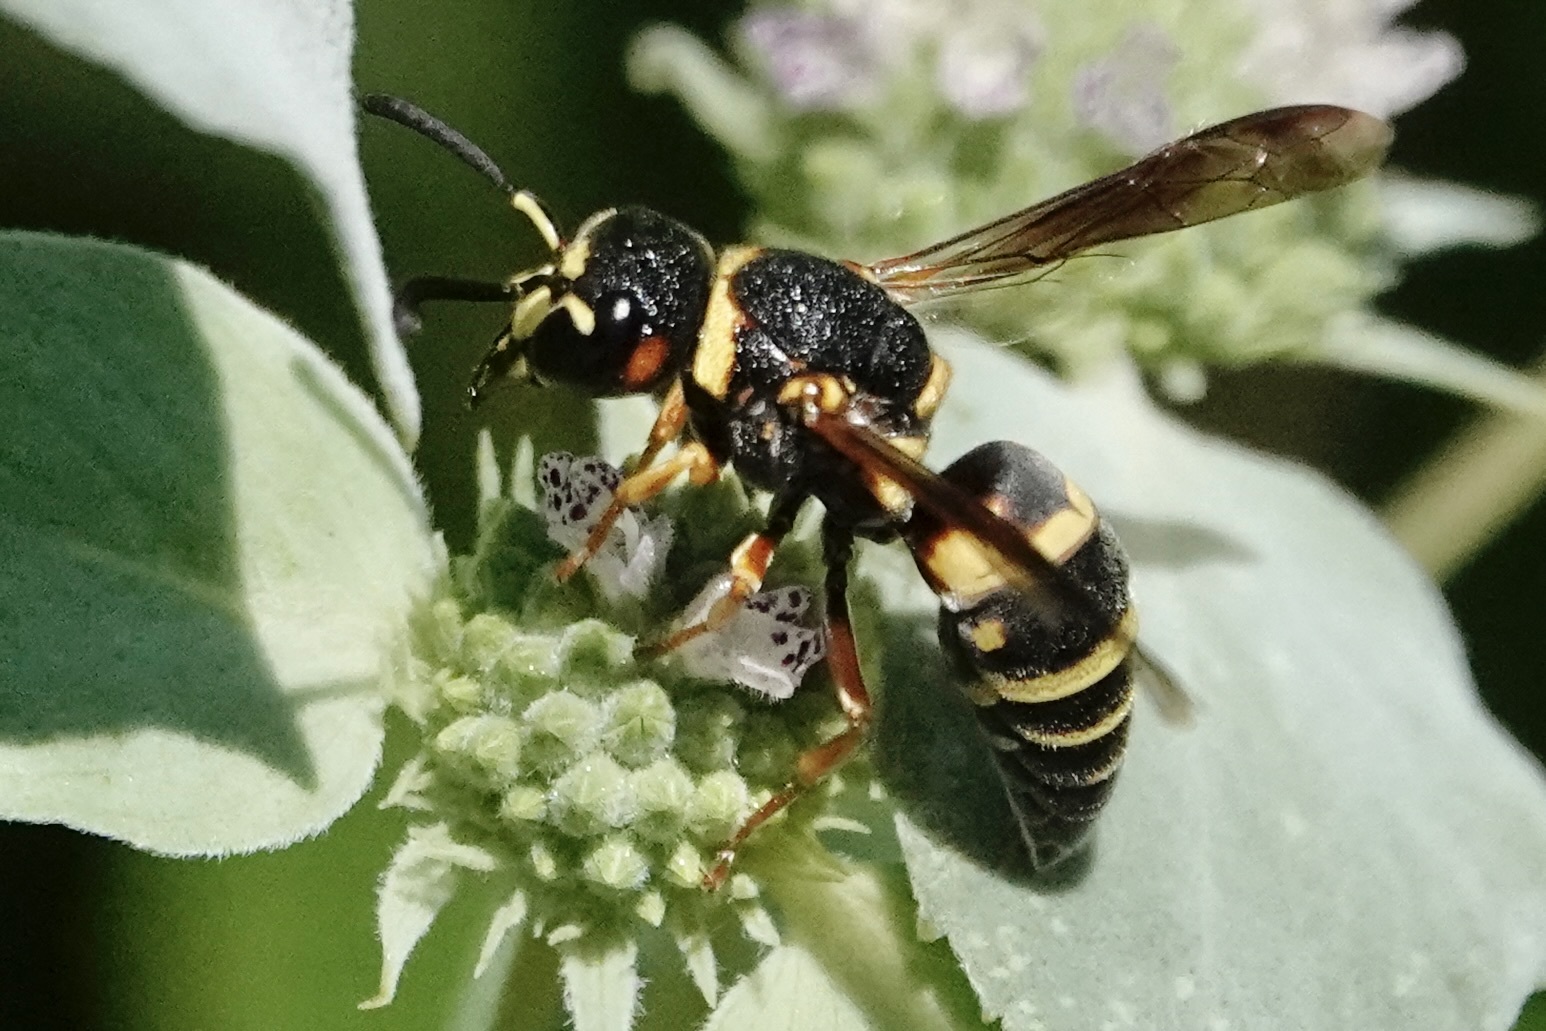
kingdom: Animalia
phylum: Arthropoda
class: Insecta
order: Hymenoptera
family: Eumenidae
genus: Euodynerus
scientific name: Euodynerus annulatus
